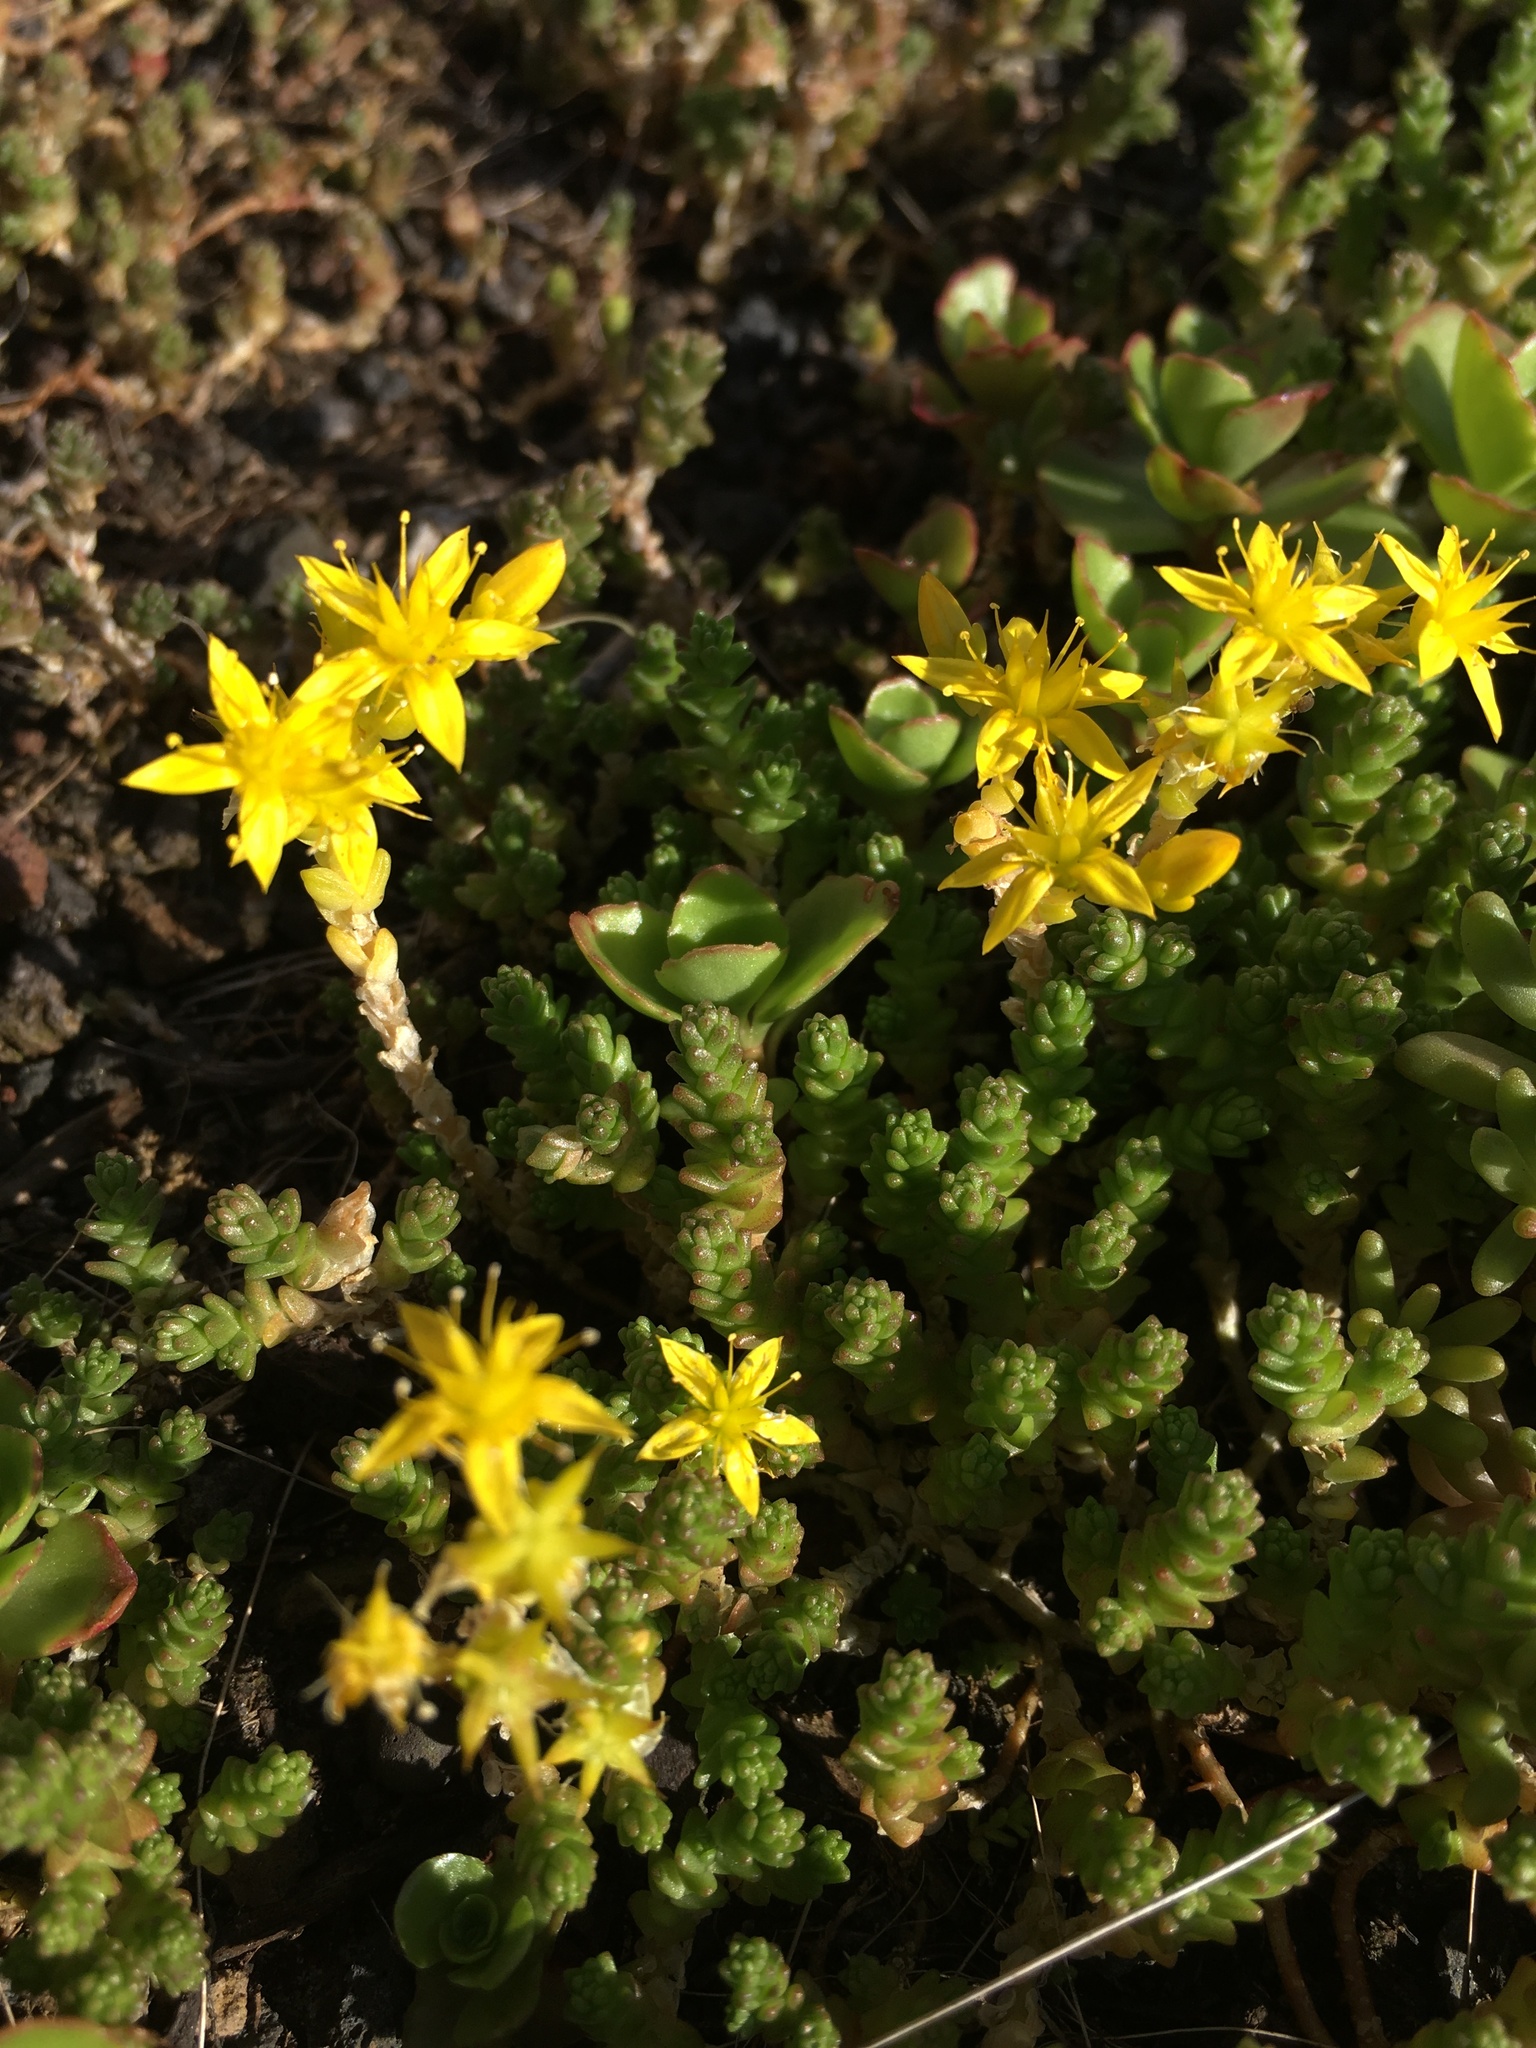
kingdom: Plantae
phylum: Tracheophyta
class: Magnoliopsida
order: Saxifragales
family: Crassulaceae
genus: Sedum
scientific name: Sedum acre
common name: Biting stonecrop
